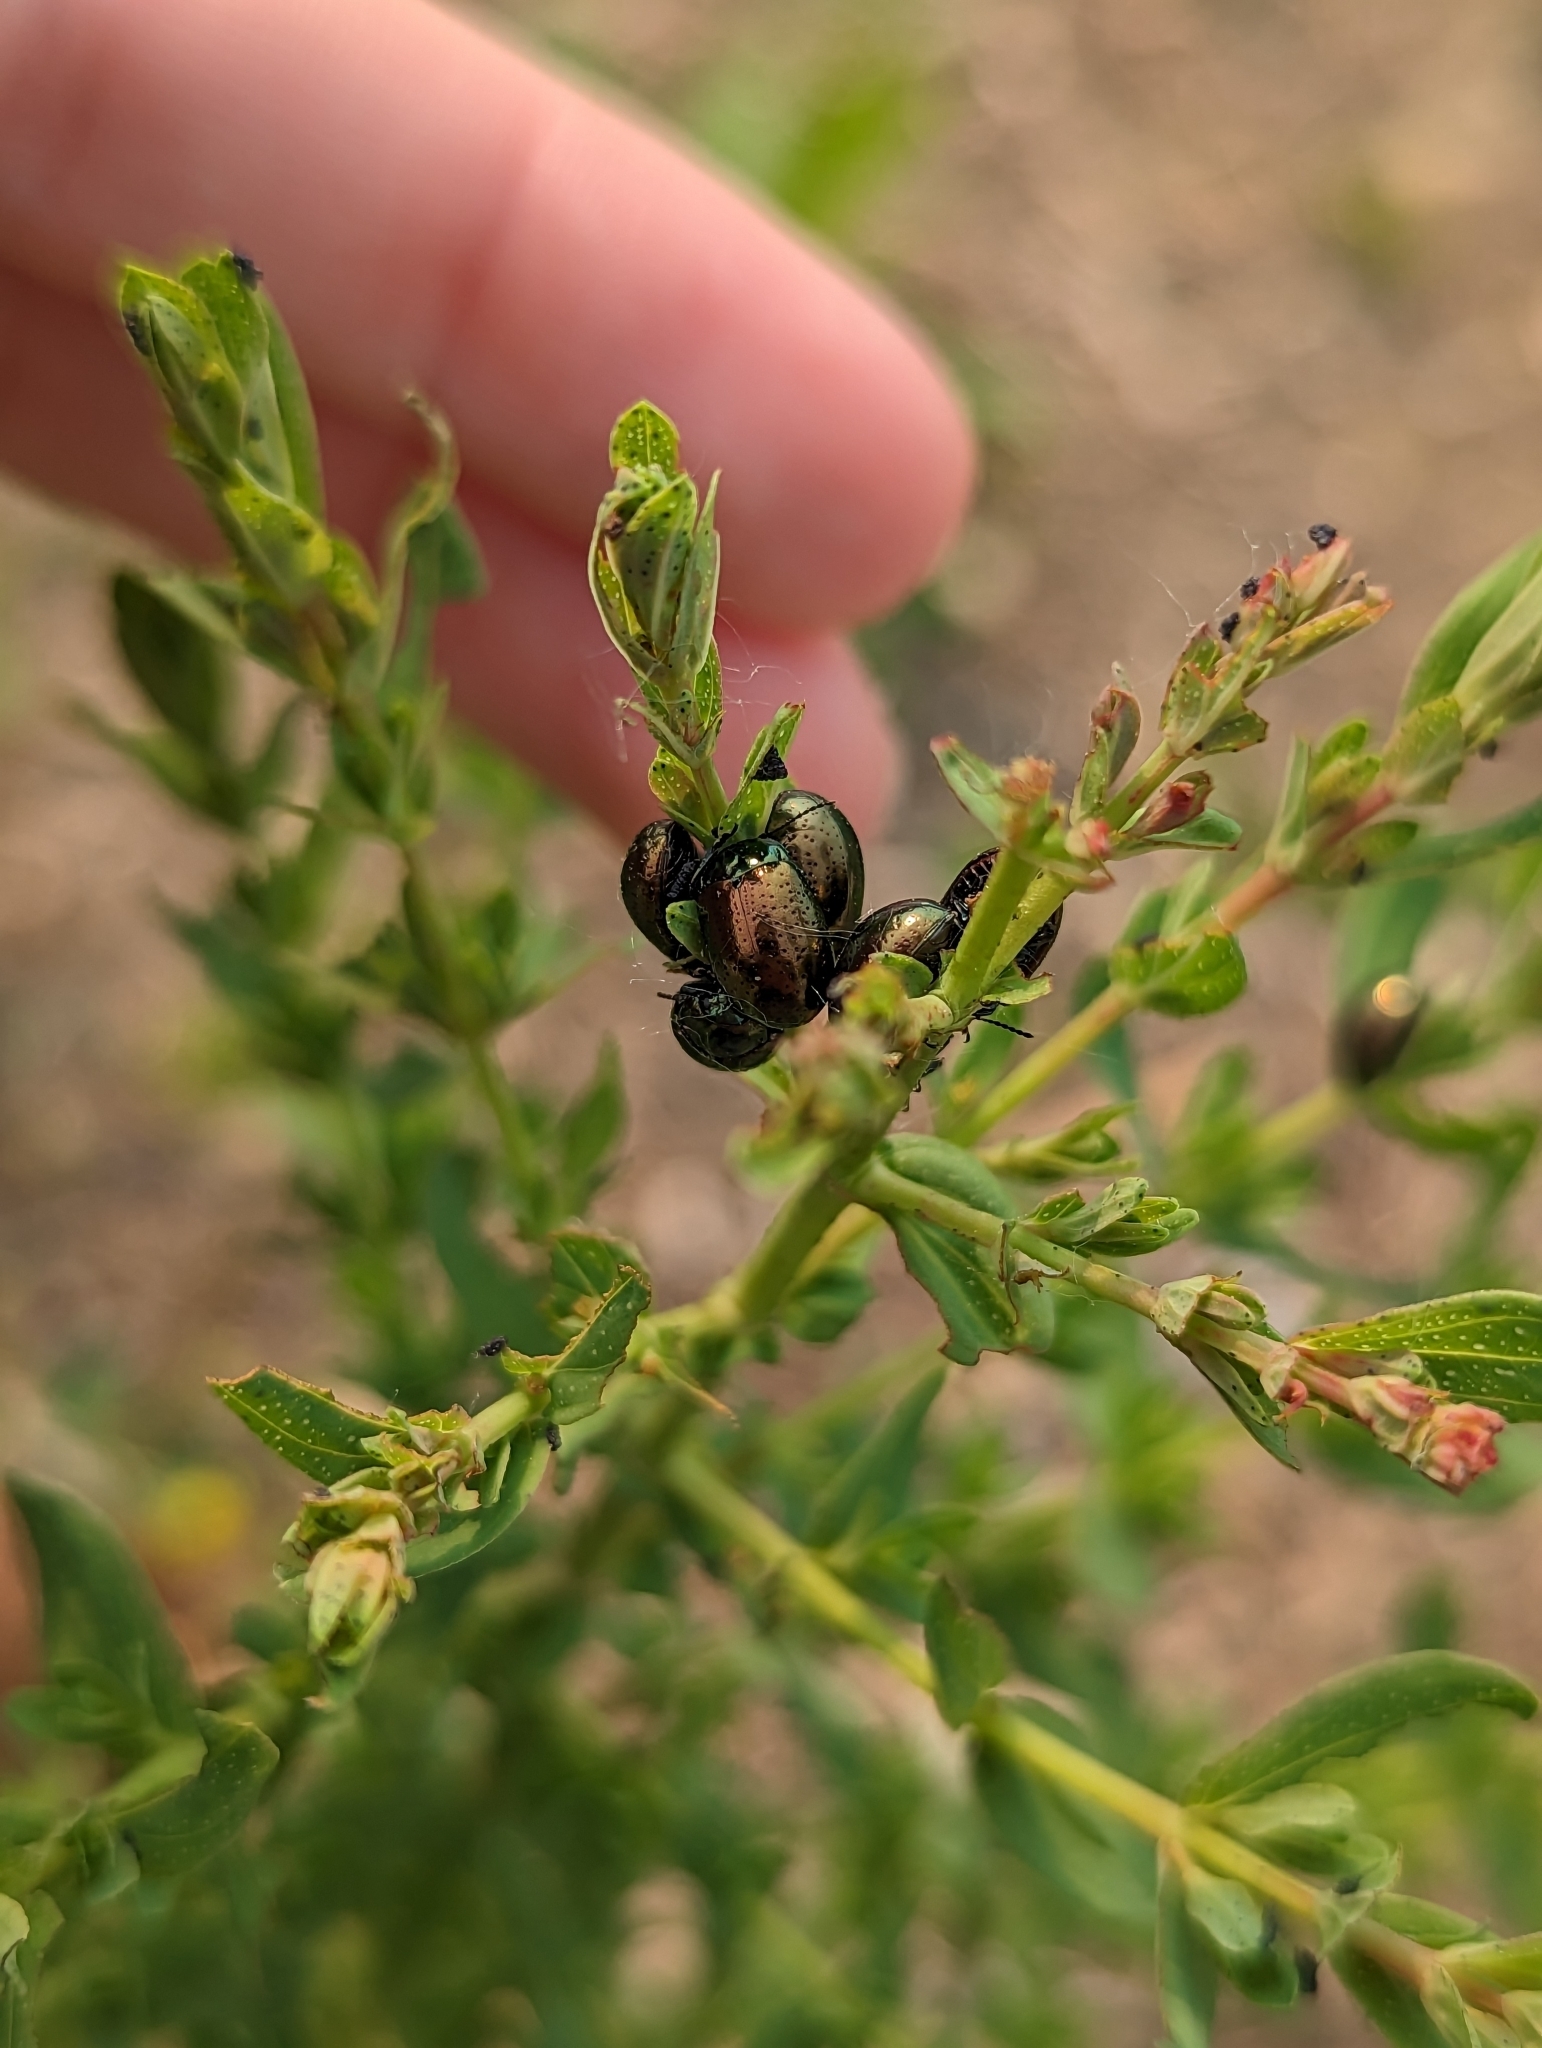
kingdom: Animalia
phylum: Arthropoda
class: Insecta
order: Coleoptera
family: Chrysomelidae
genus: Chrysolina
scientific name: Chrysolina hyperici
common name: St. johnswort beetle
